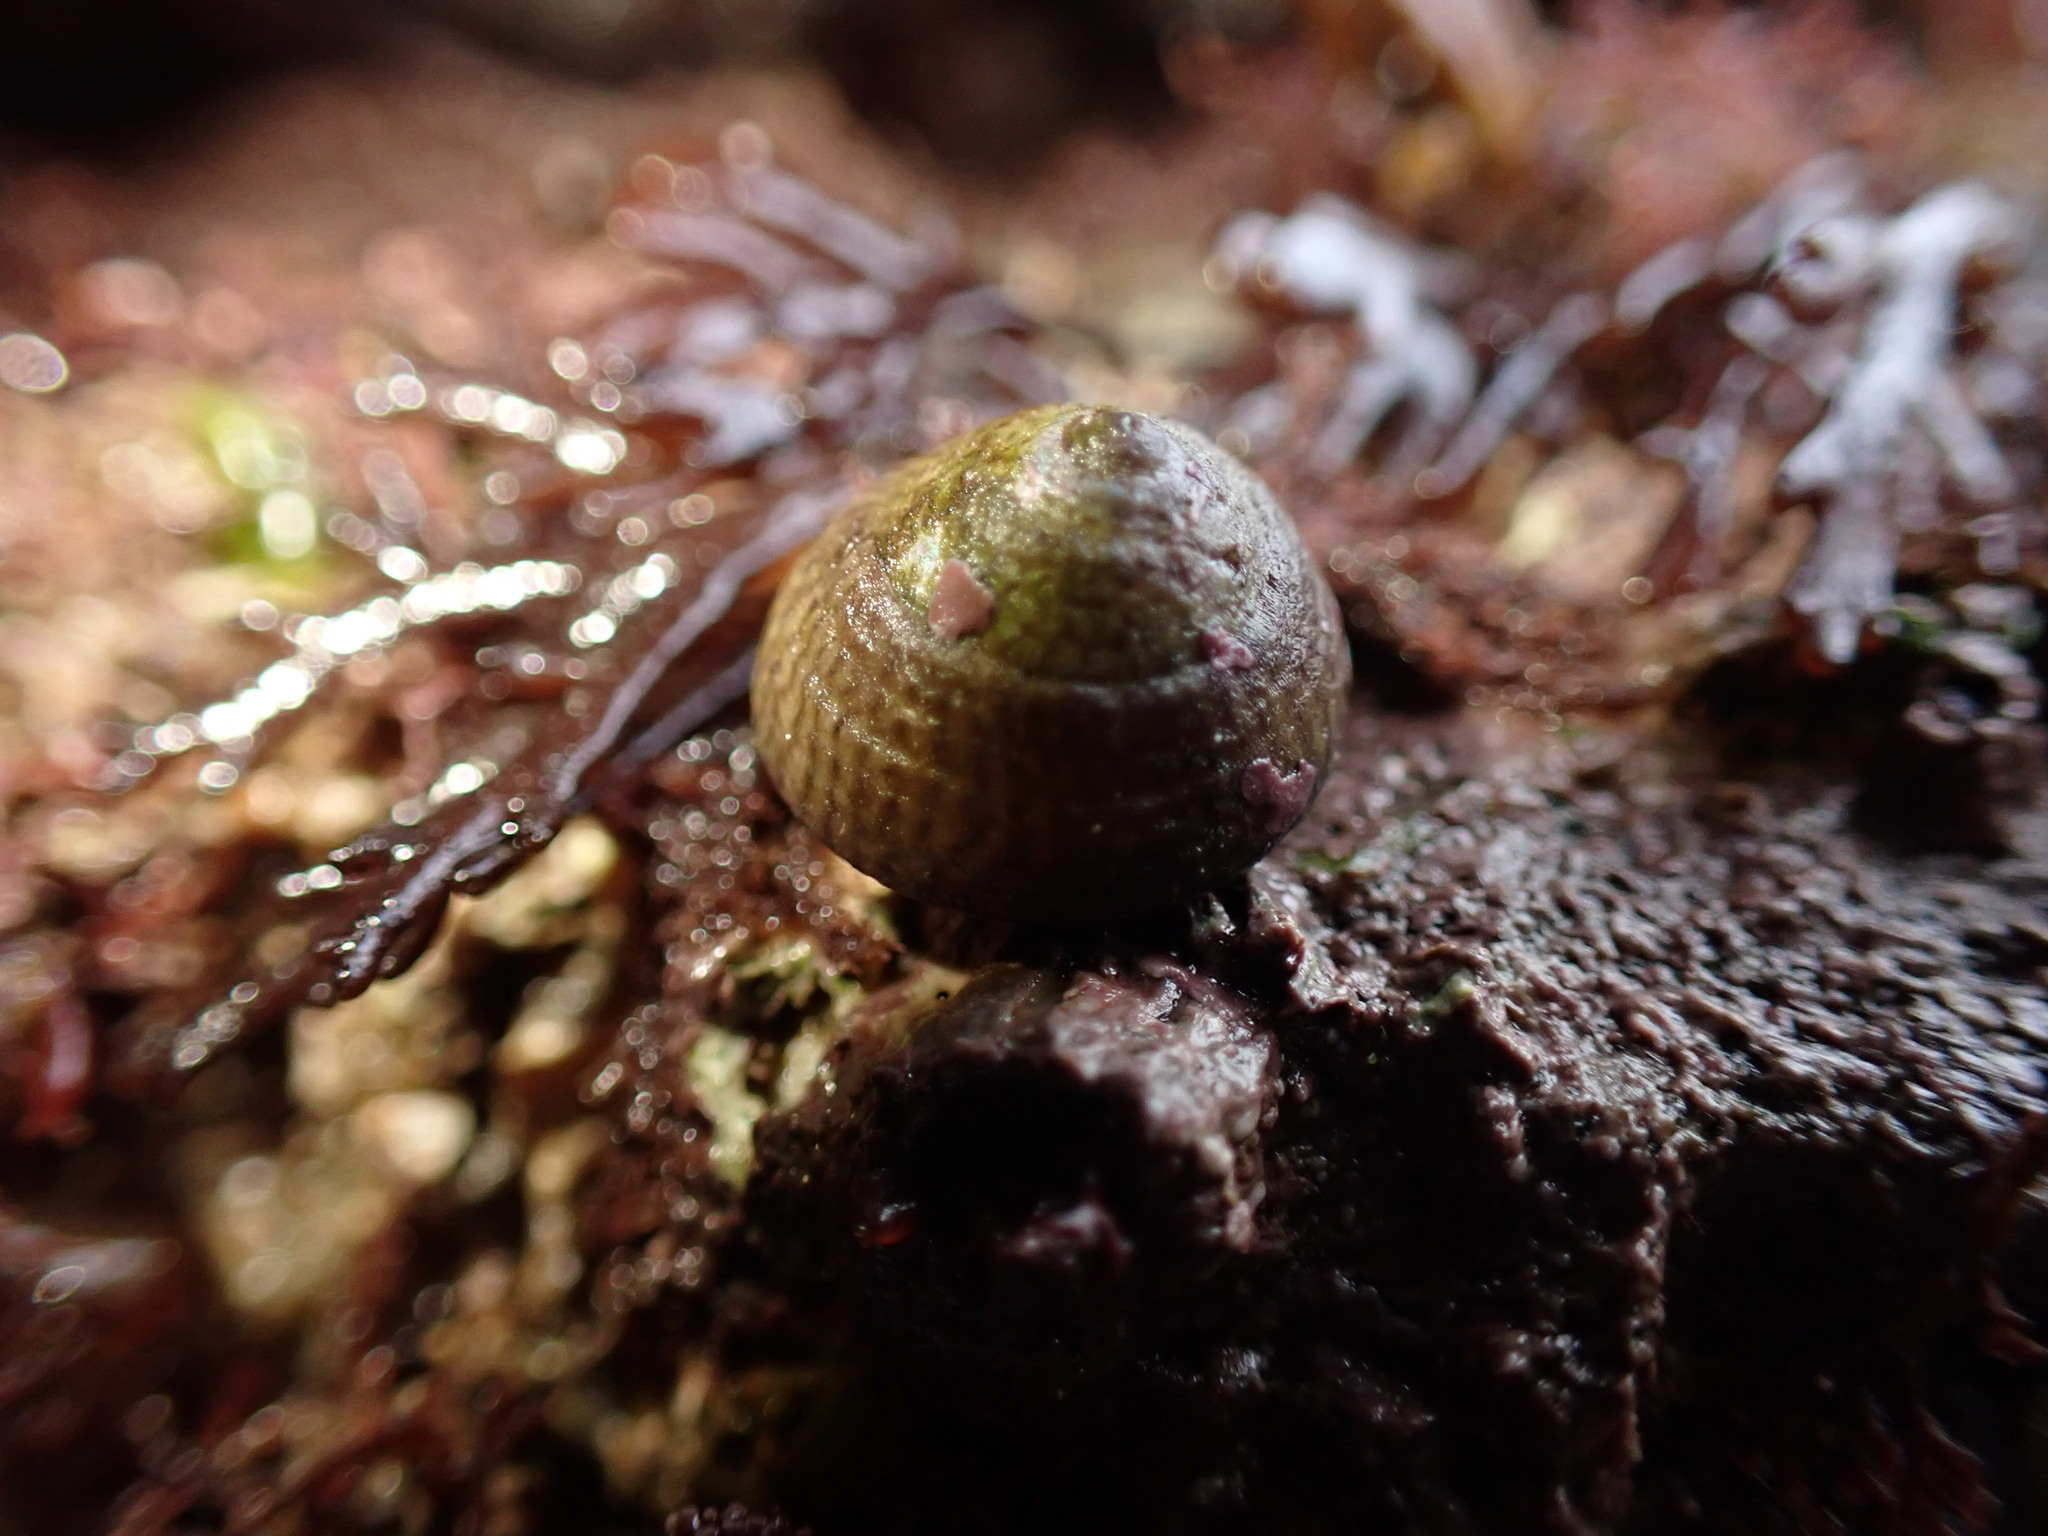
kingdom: Animalia
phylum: Mollusca
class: Gastropoda
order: Trochida
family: Trochidae
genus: Steromphala
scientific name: Steromphala cineraria
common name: Grey top shell
